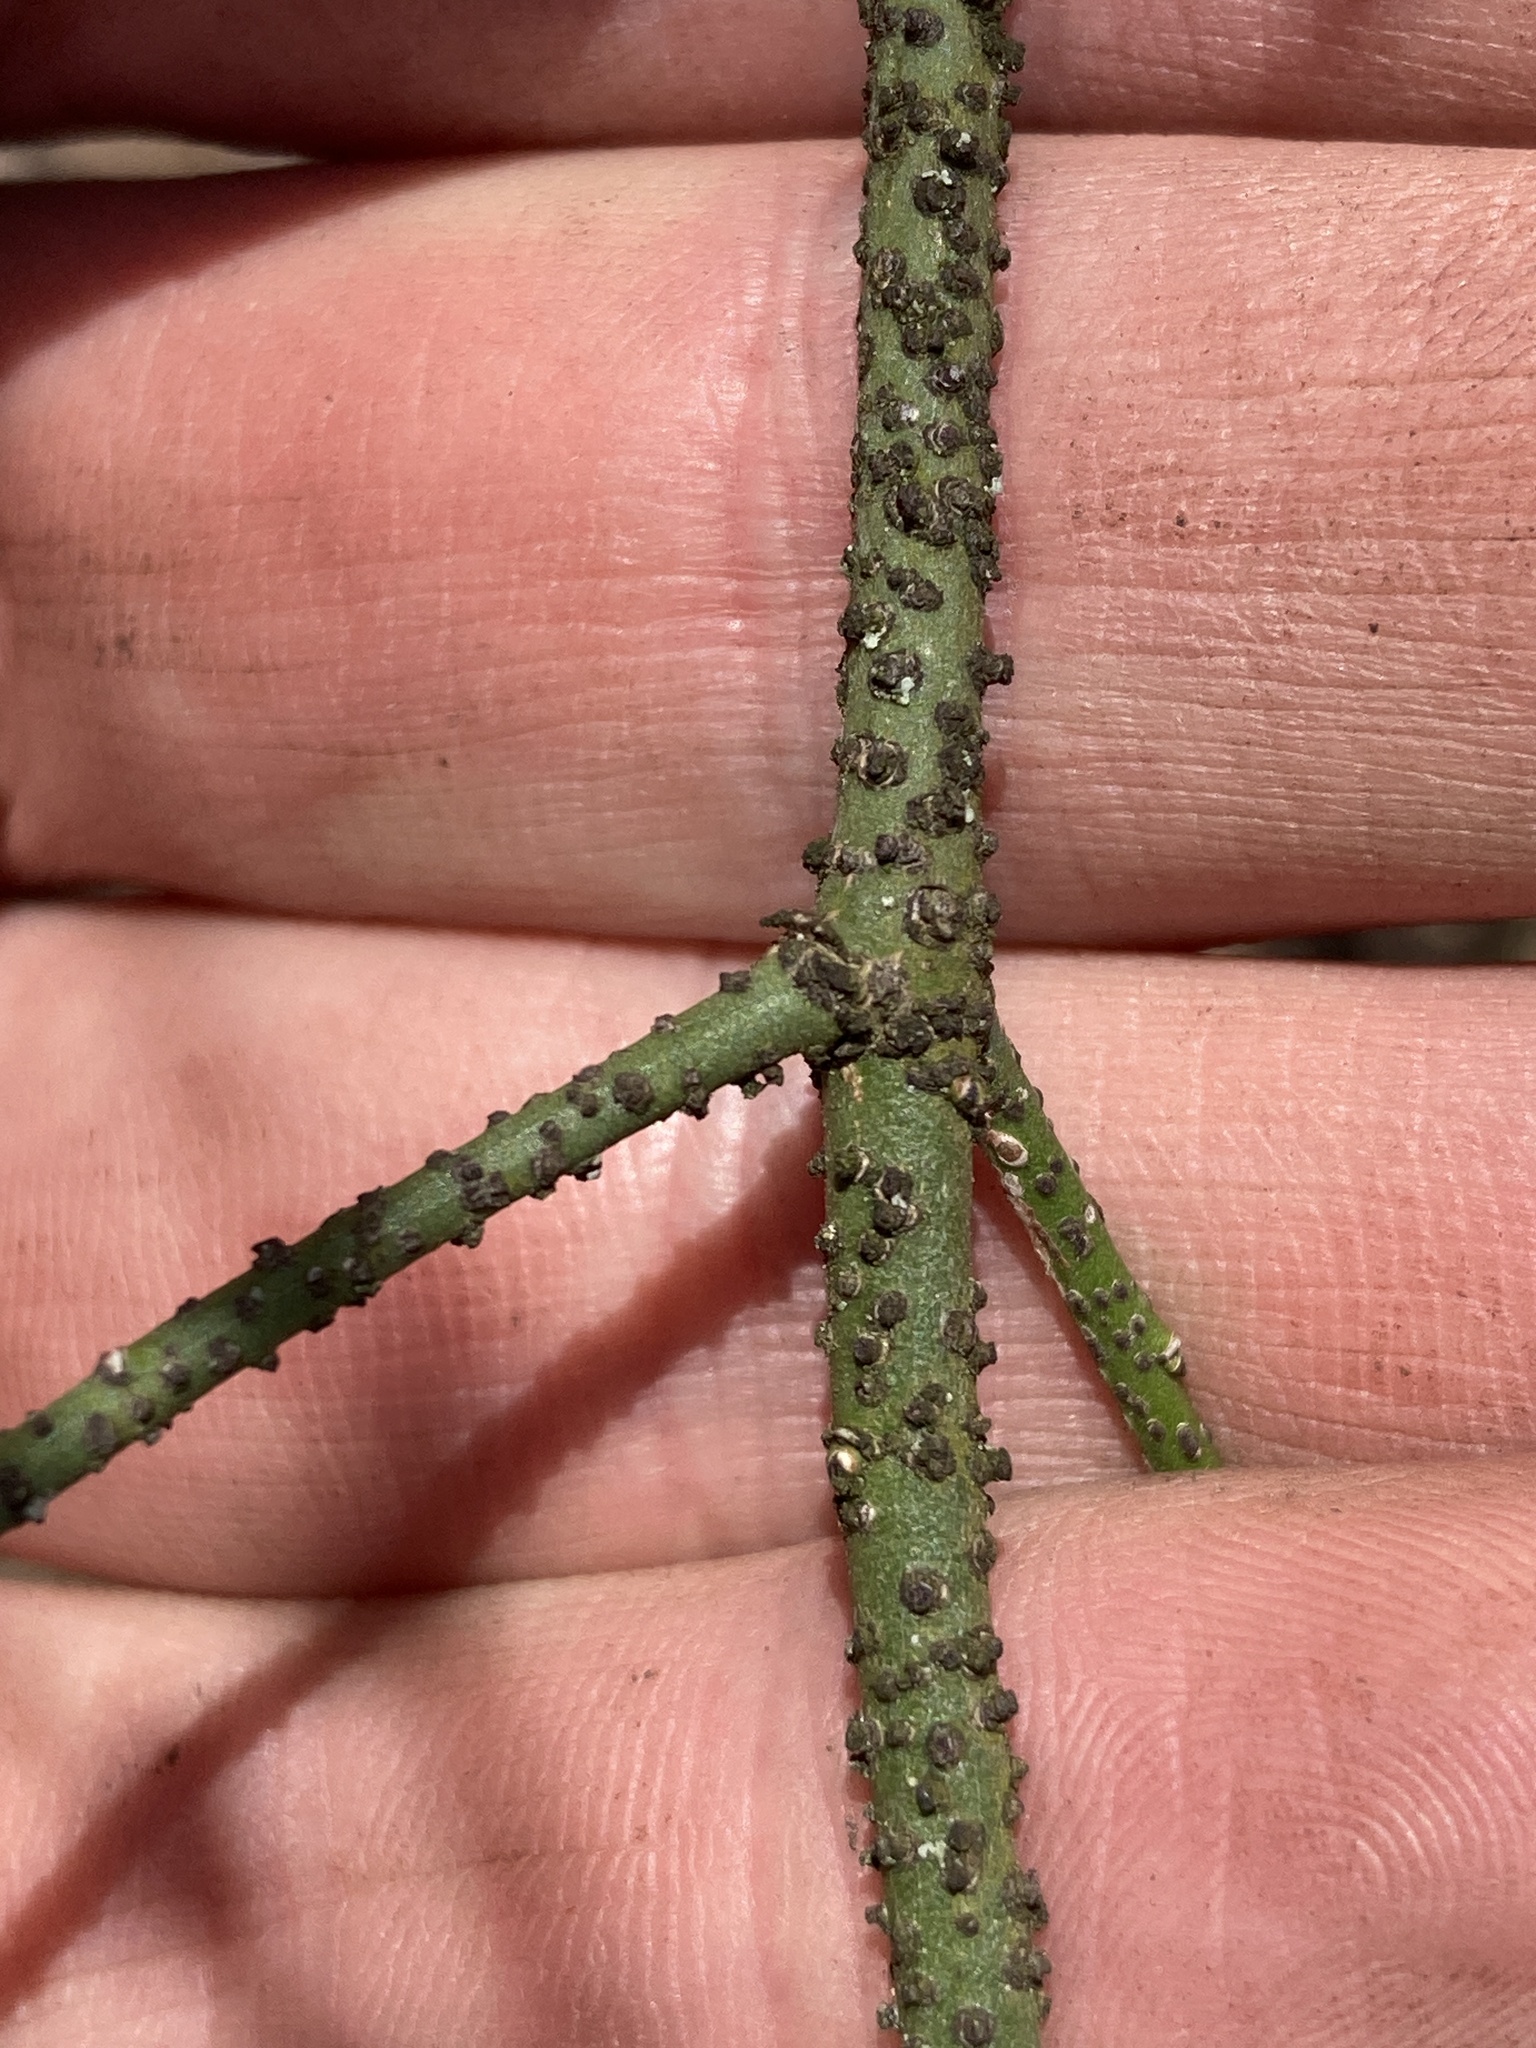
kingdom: Plantae
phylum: Tracheophyta
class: Magnoliopsida
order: Celastrales
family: Celastraceae
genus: Euonymus
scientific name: Euonymus verrucosus
